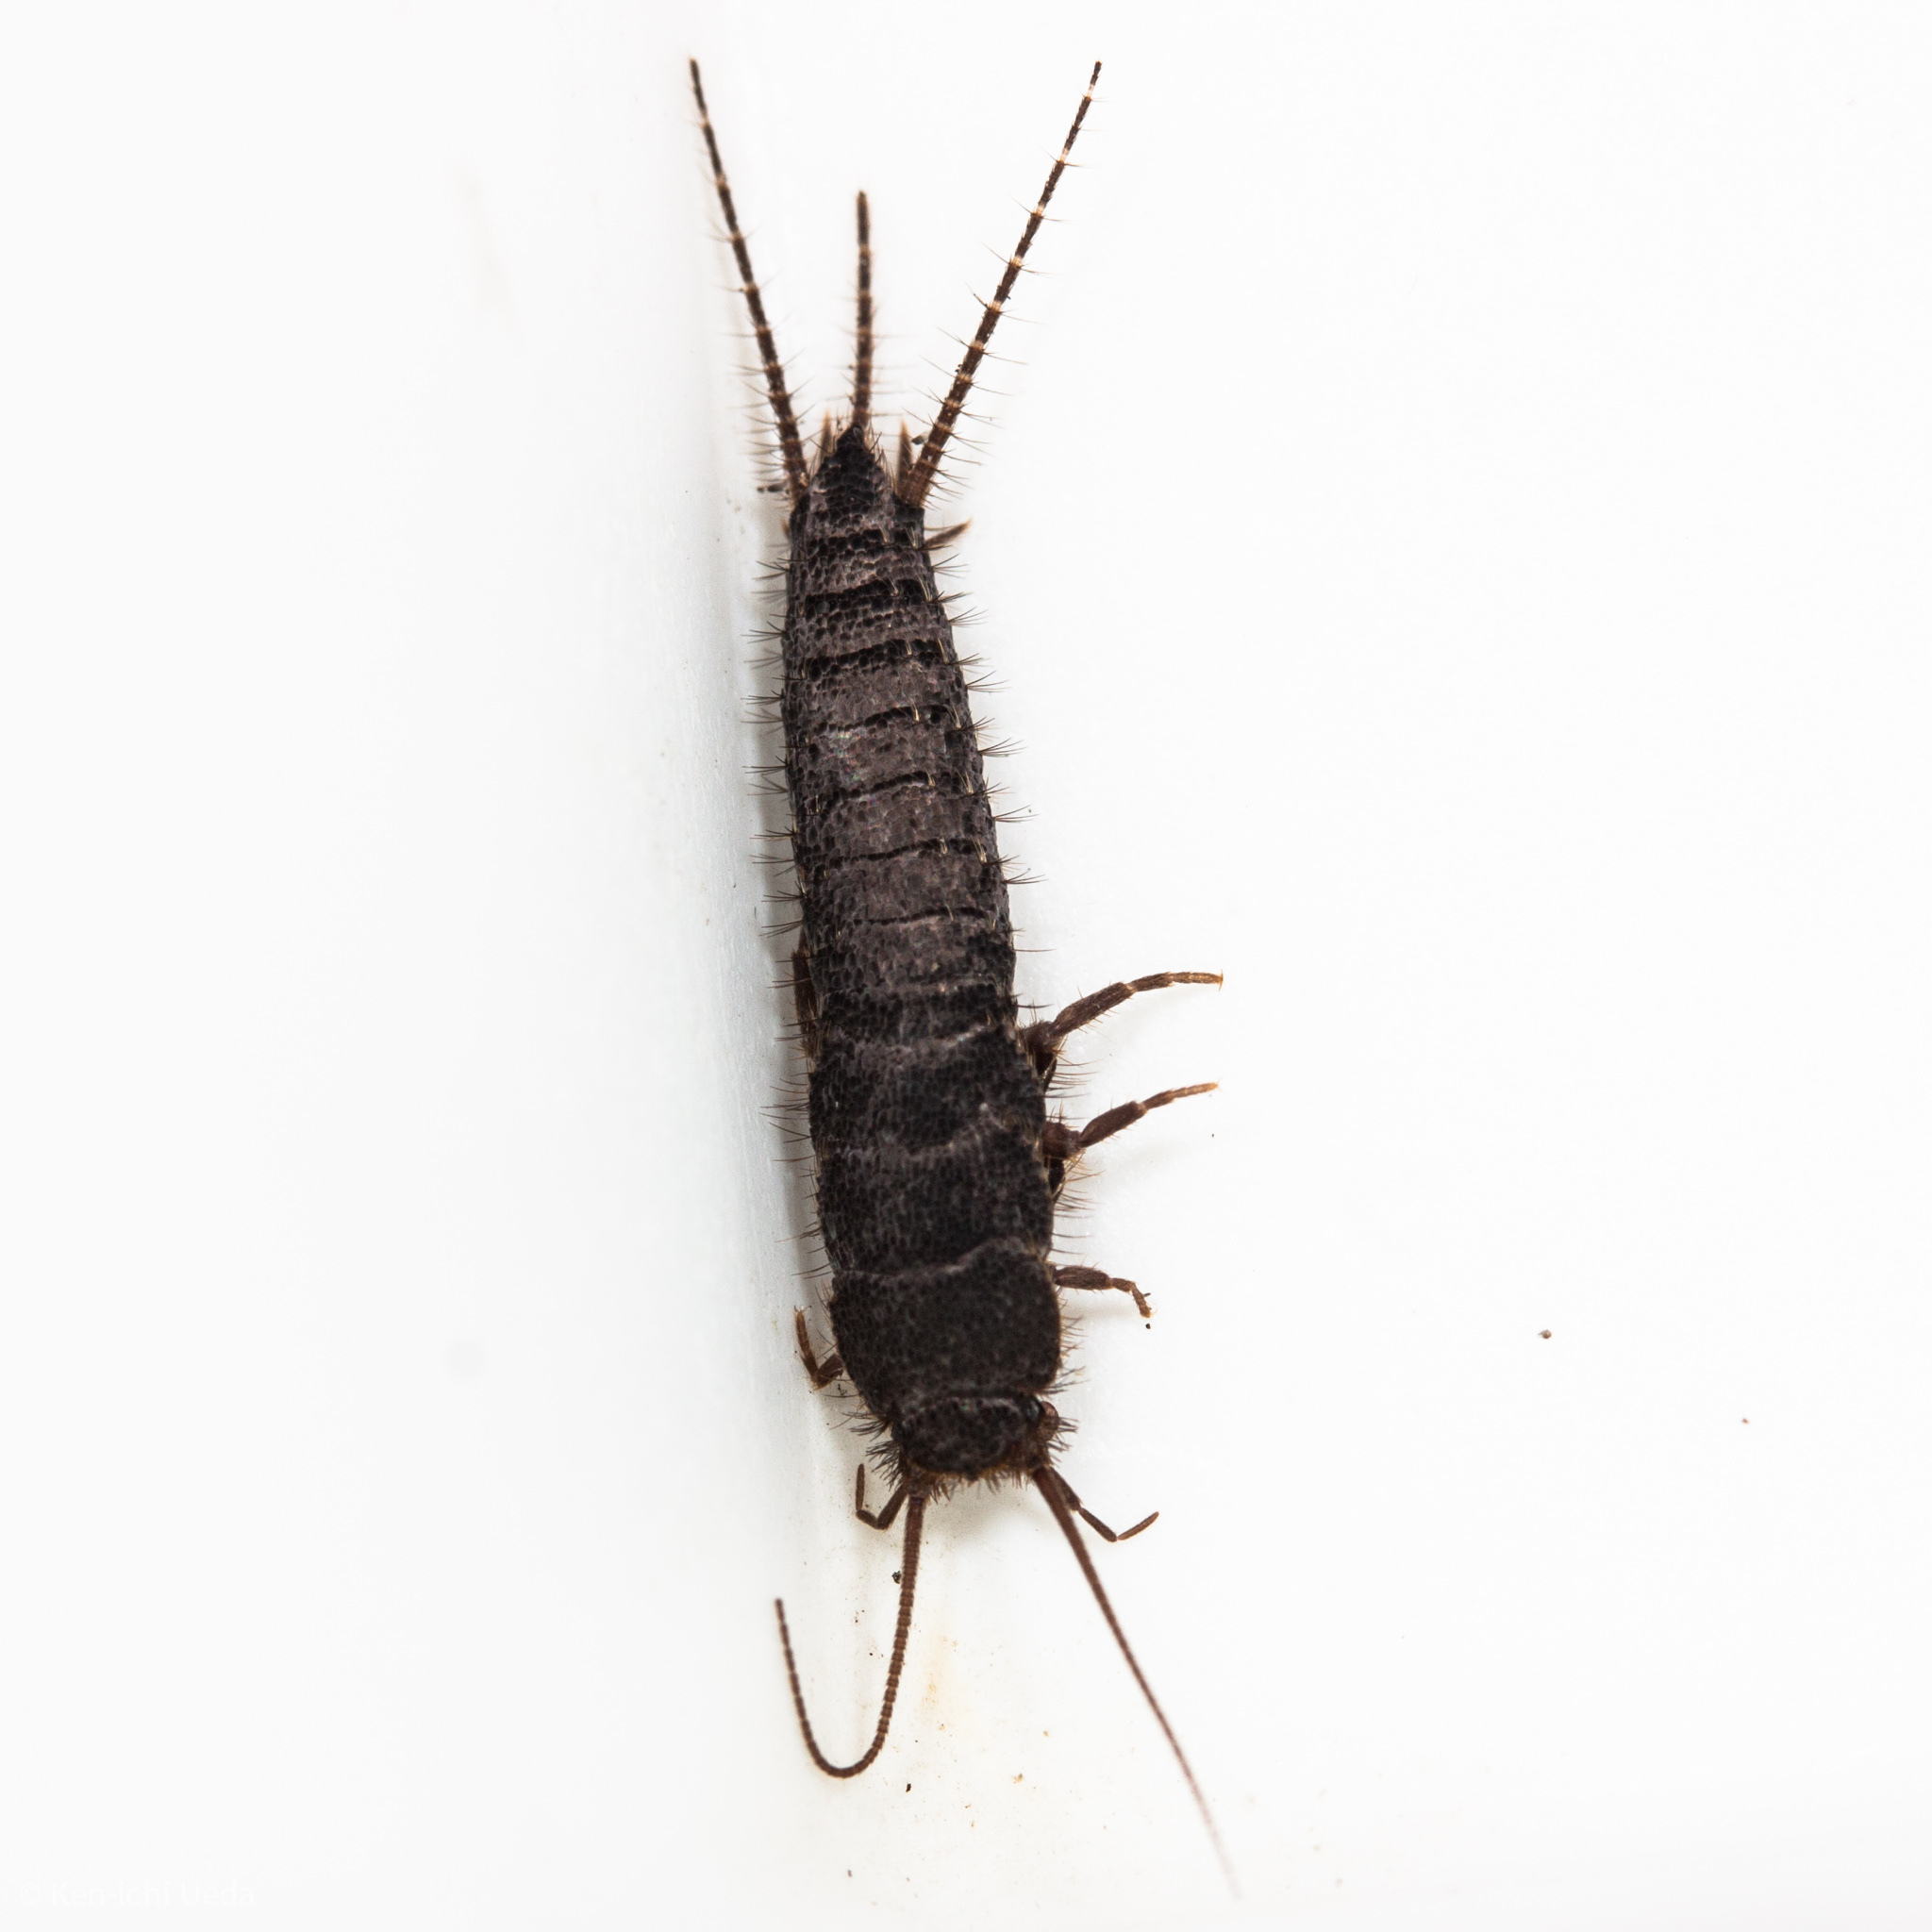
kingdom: Animalia
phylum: Arthropoda
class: Insecta
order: Zygentoma
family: Lepismatidae
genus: Allacrotelsa
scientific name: Allacrotelsa spinulata
